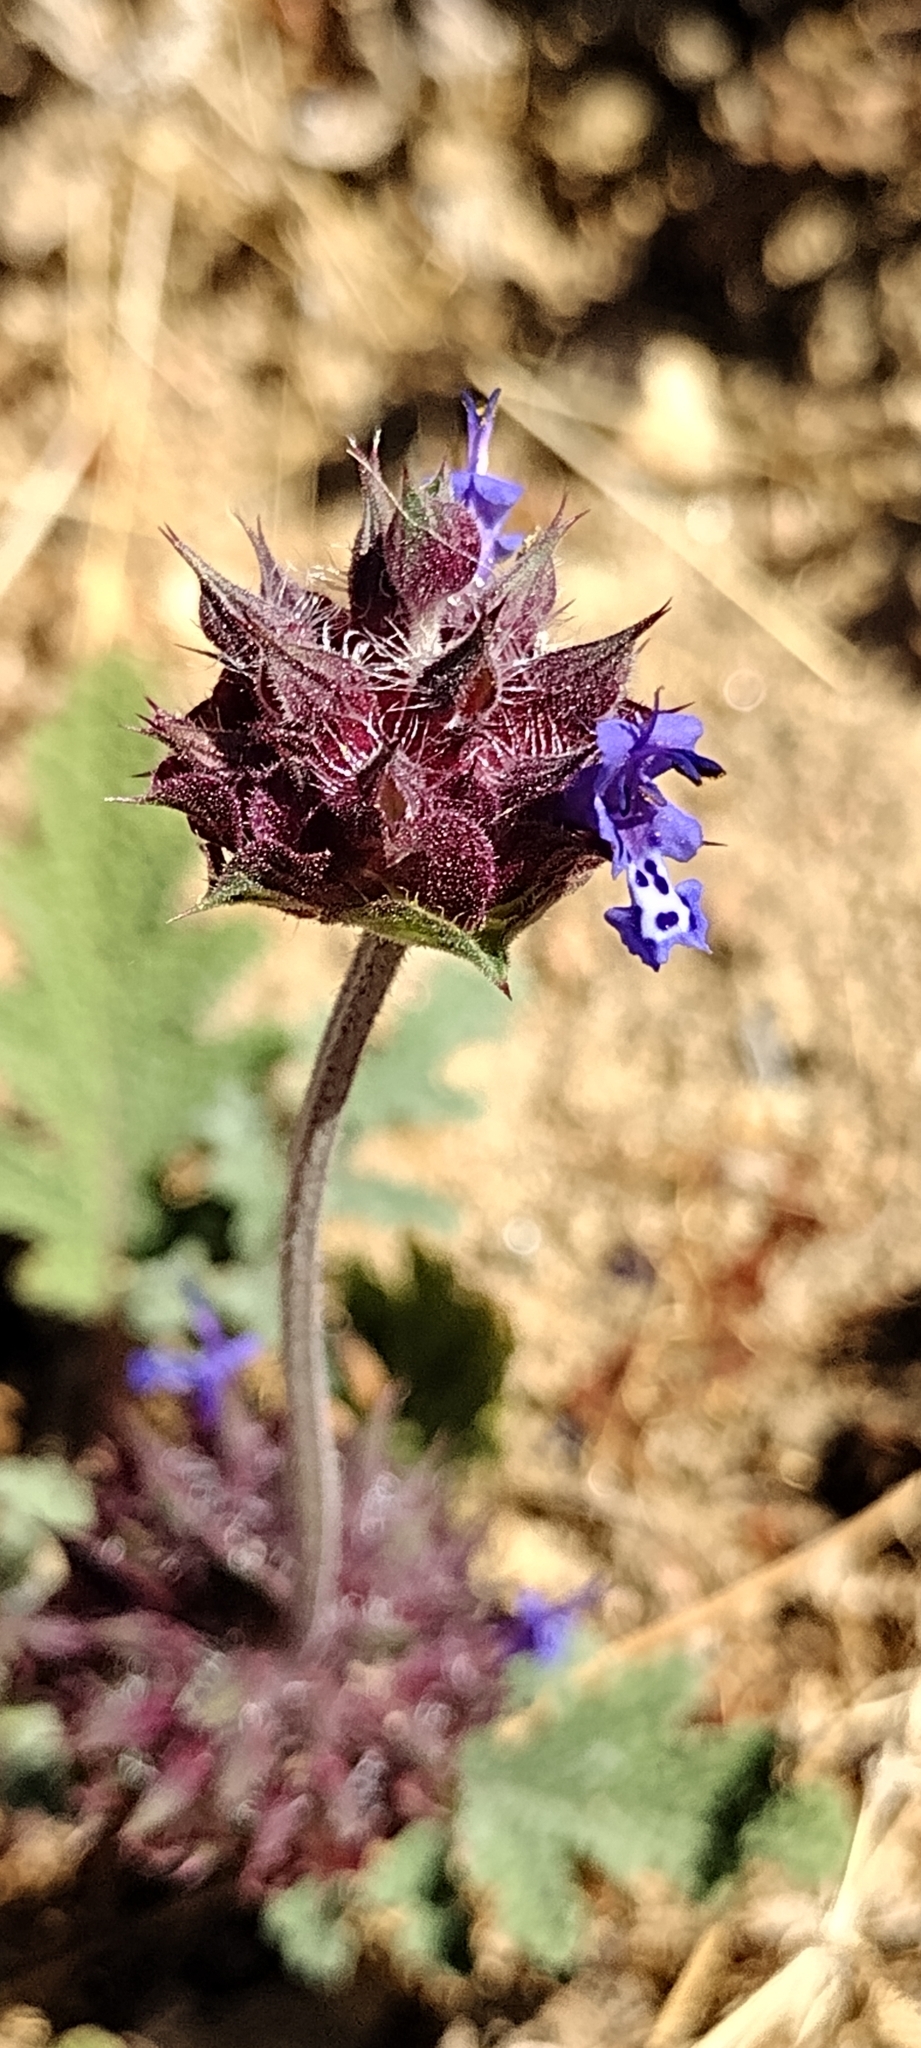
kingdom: Plantae
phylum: Tracheophyta
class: Magnoliopsida
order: Lamiales
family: Lamiaceae
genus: Salvia
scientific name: Salvia columbariae
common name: Chia
